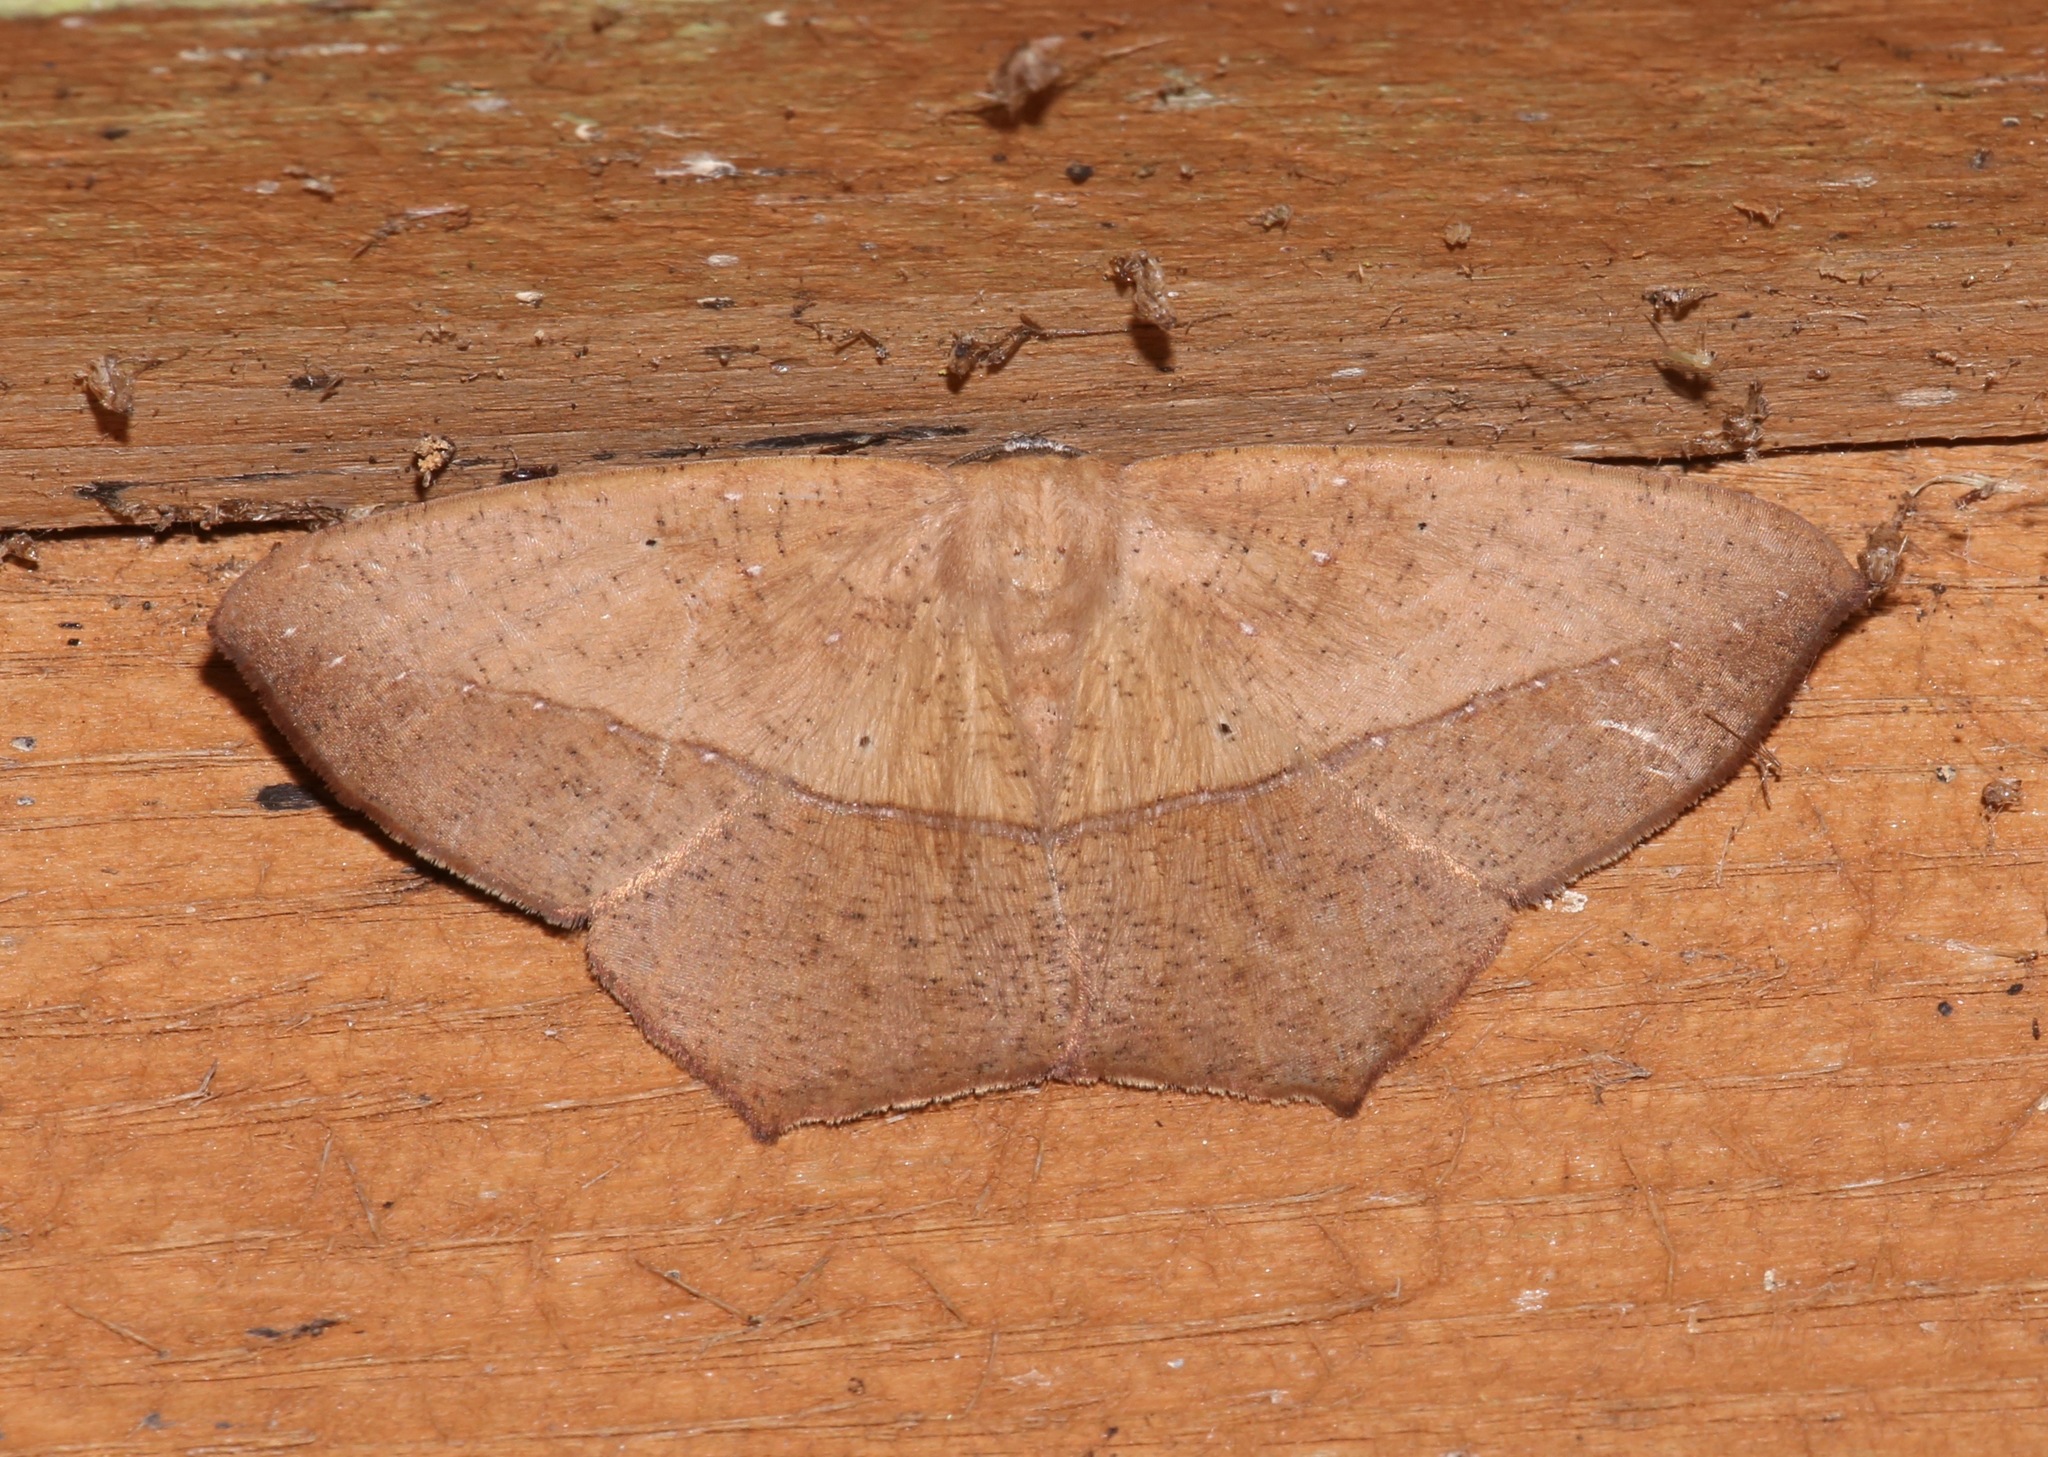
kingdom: Animalia
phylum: Arthropoda
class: Insecta
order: Lepidoptera
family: Geometridae
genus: Prochoerodes
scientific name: Prochoerodes lineola
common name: Large maple spanworm
